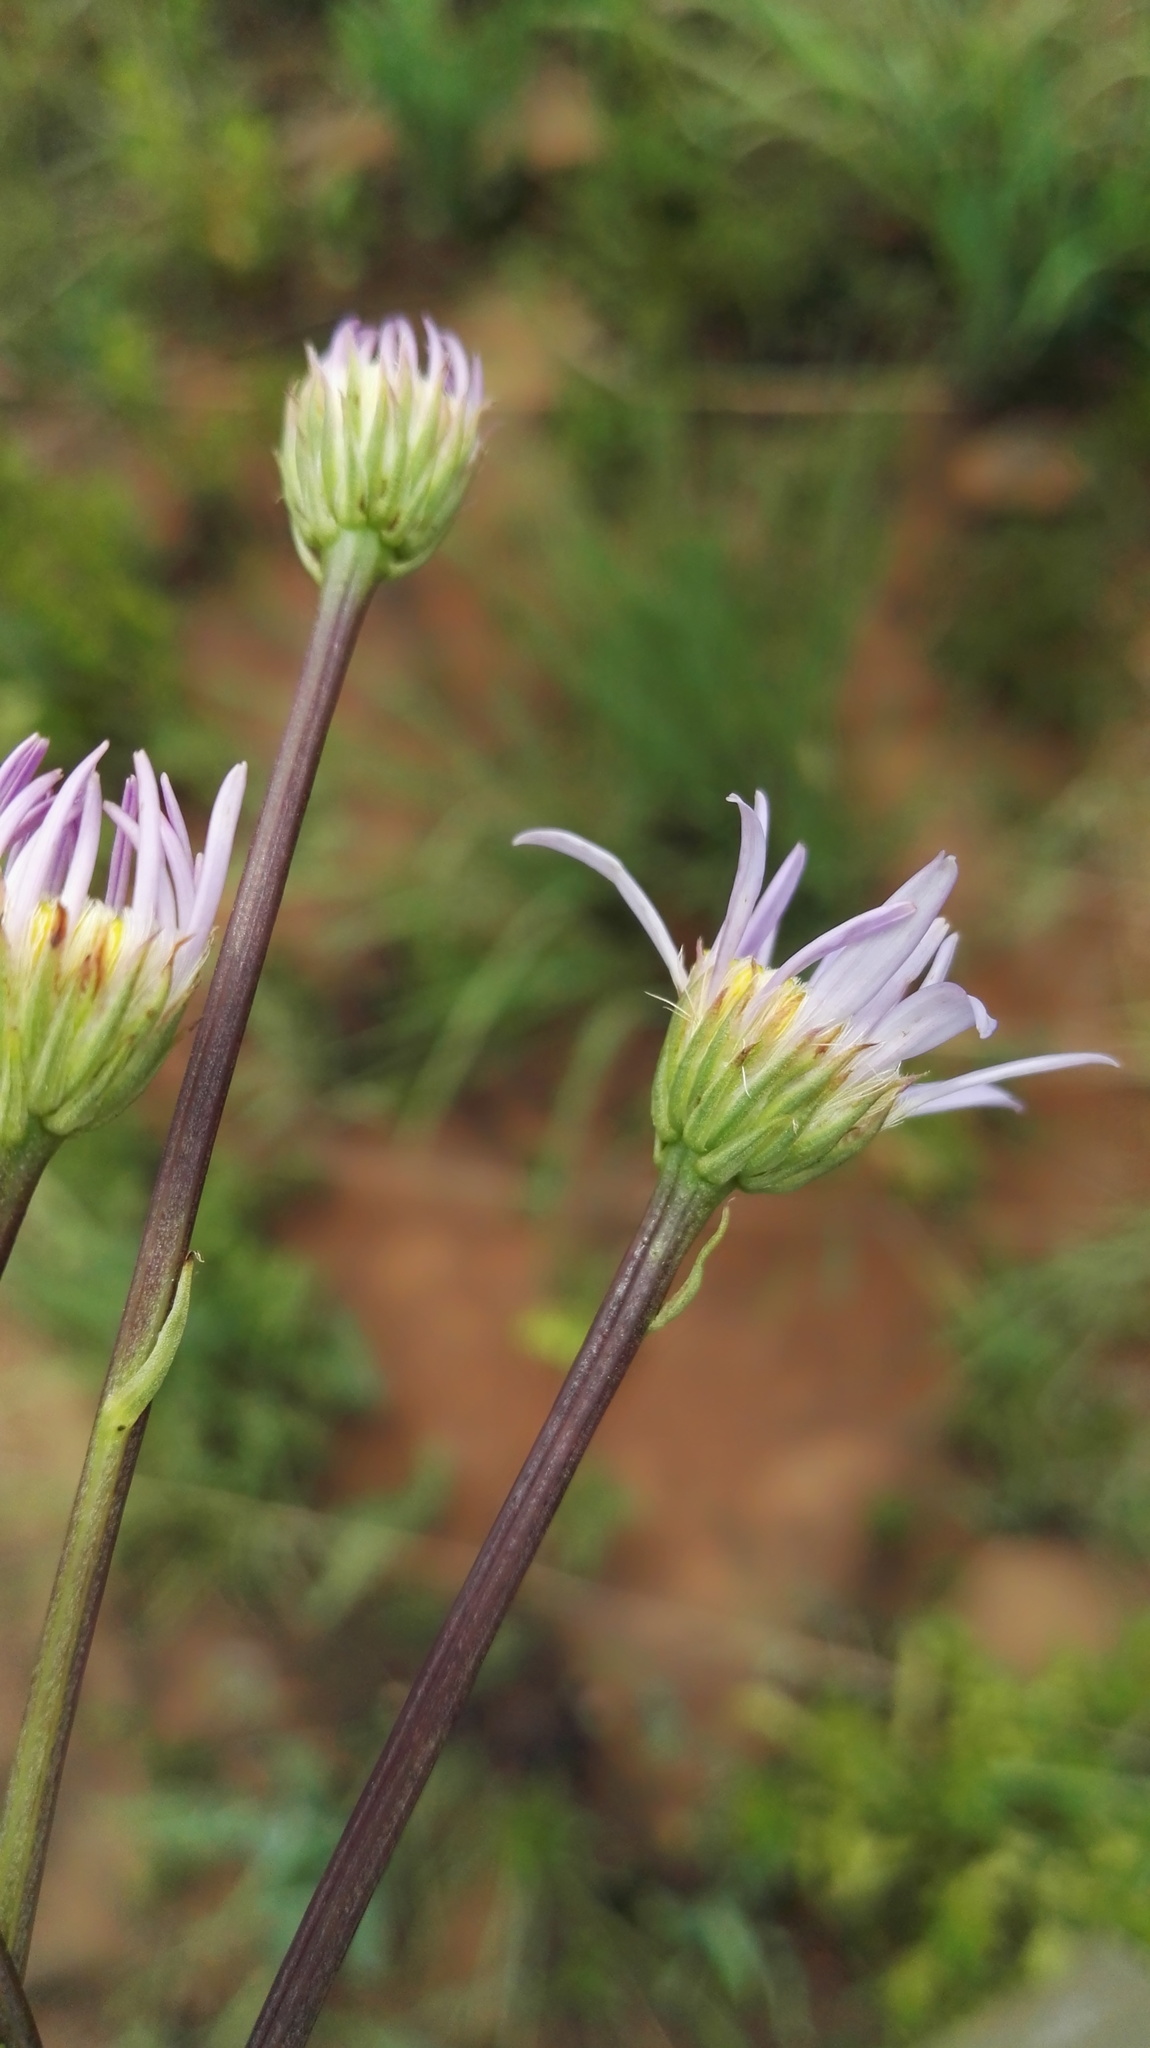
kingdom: Plantae
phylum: Tracheophyta
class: Magnoliopsida
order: Asterales
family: Asteraceae
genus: Afroaster
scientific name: Afroaster hispidus
